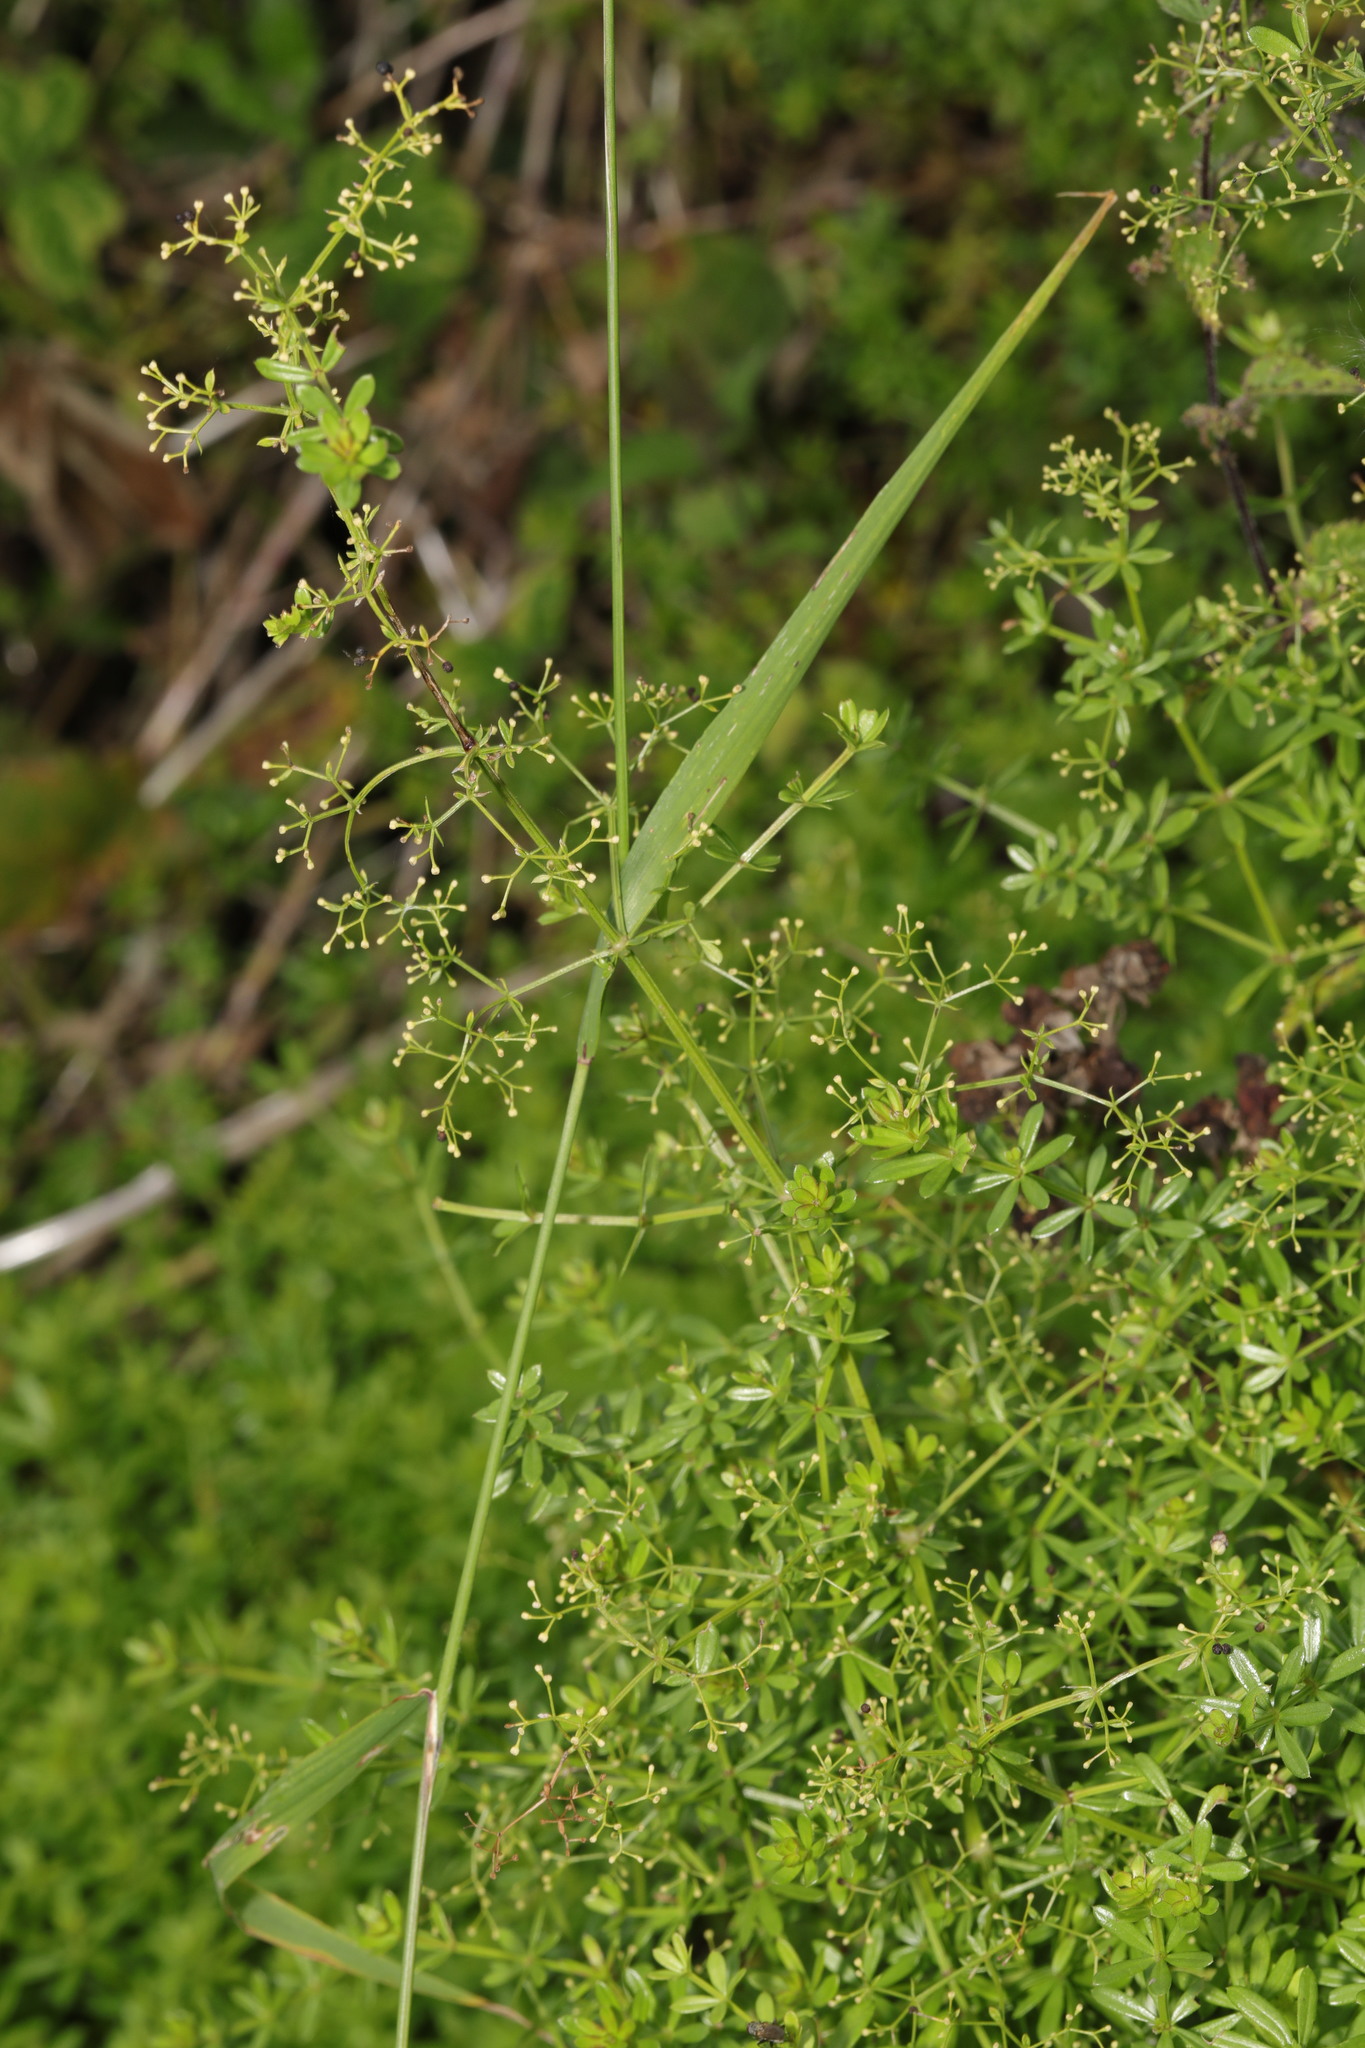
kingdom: Plantae
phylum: Tracheophyta
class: Magnoliopsida
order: Gentianales
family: Rubiaceae
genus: Galium
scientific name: Galium mollugo
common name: Hedge bedstraw
